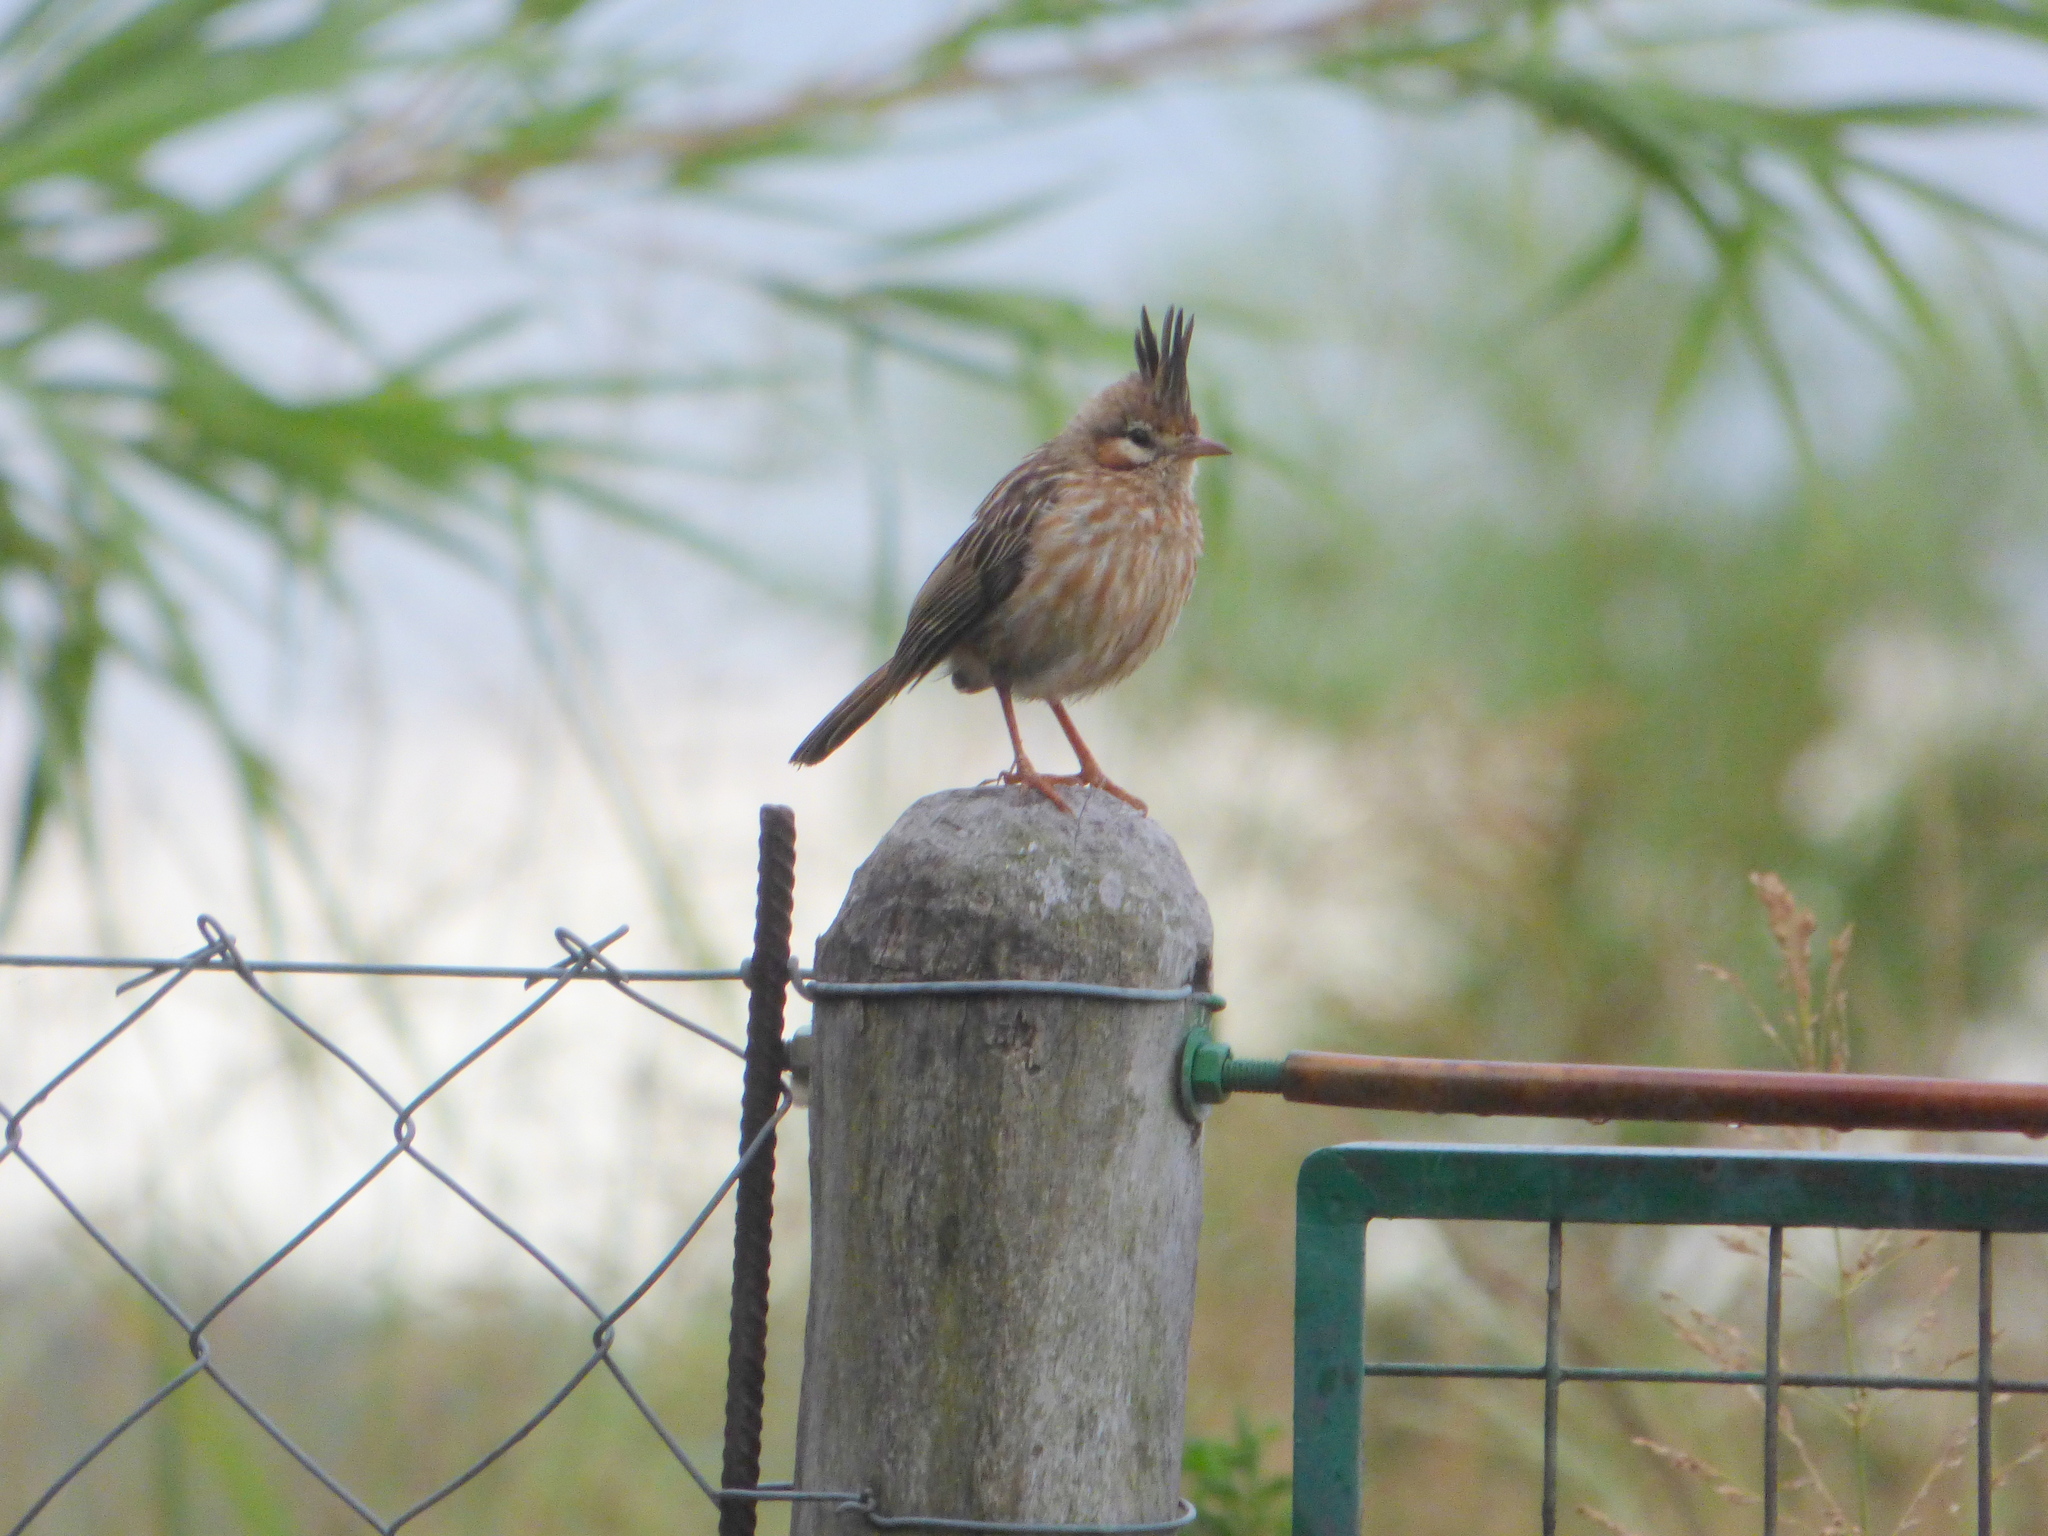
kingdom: Animalia
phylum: Chordata
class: Aves
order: Passeriformes
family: Furnariidae
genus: Coryphistera
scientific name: Coryphistera alaudina
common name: Lark-like brushrunner
